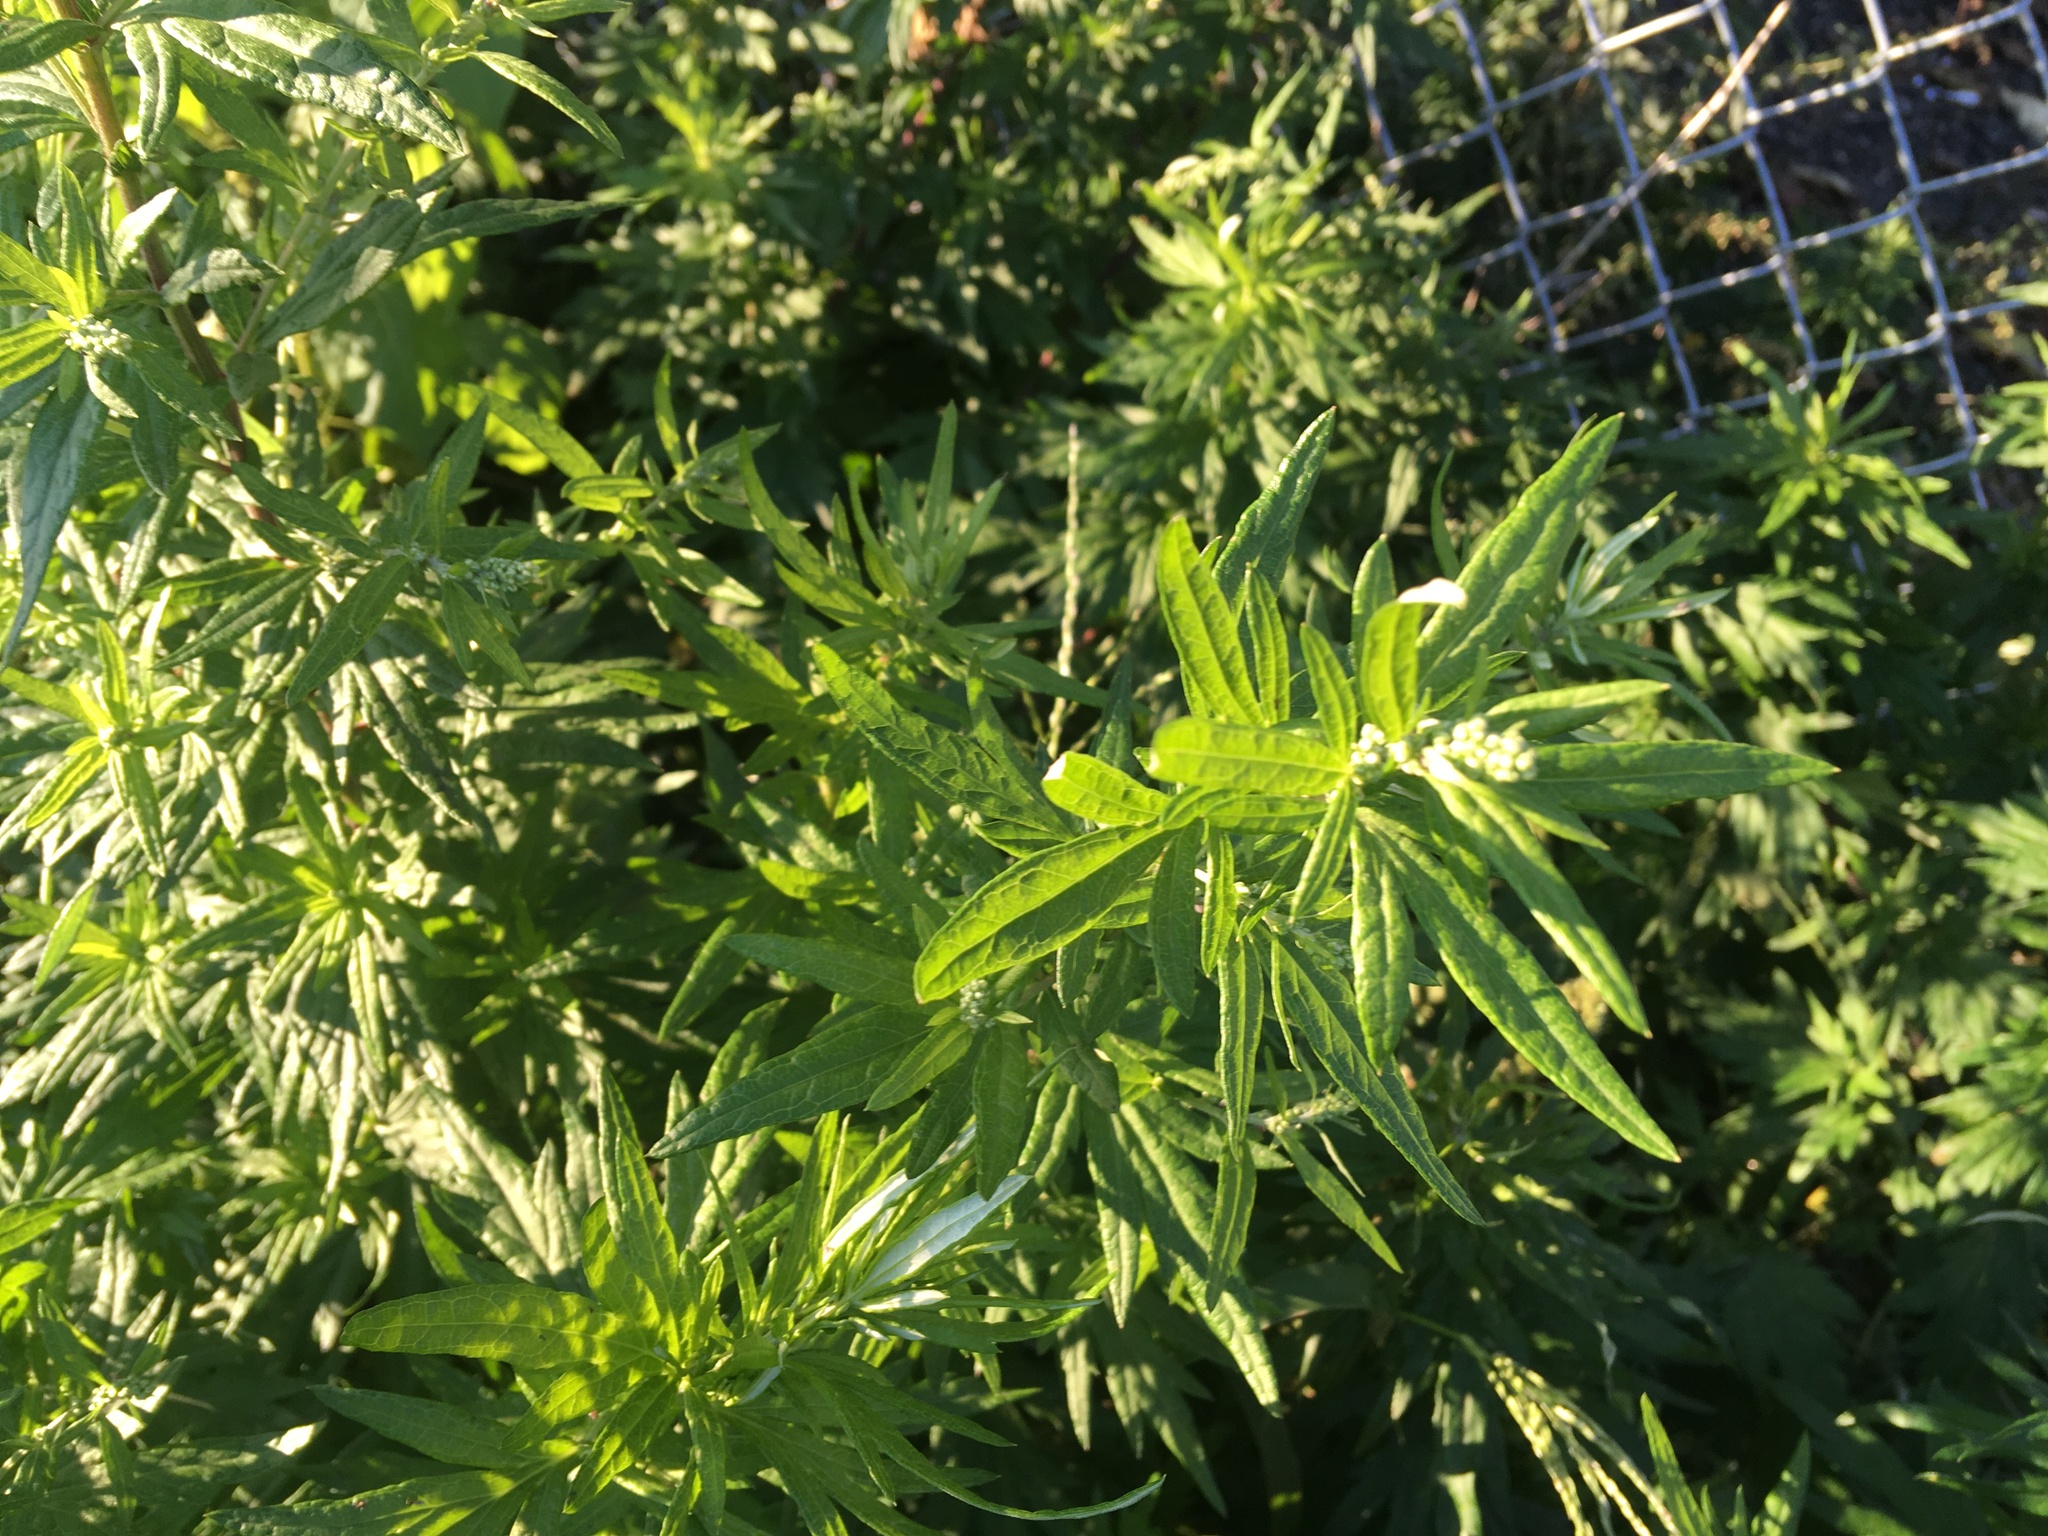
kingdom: Plantae
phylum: Tracheophyta
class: Magnoliopsida
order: Asterales
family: Asteraceae
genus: Artemisia
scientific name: Artemisia vulgaris
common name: Mugwort
